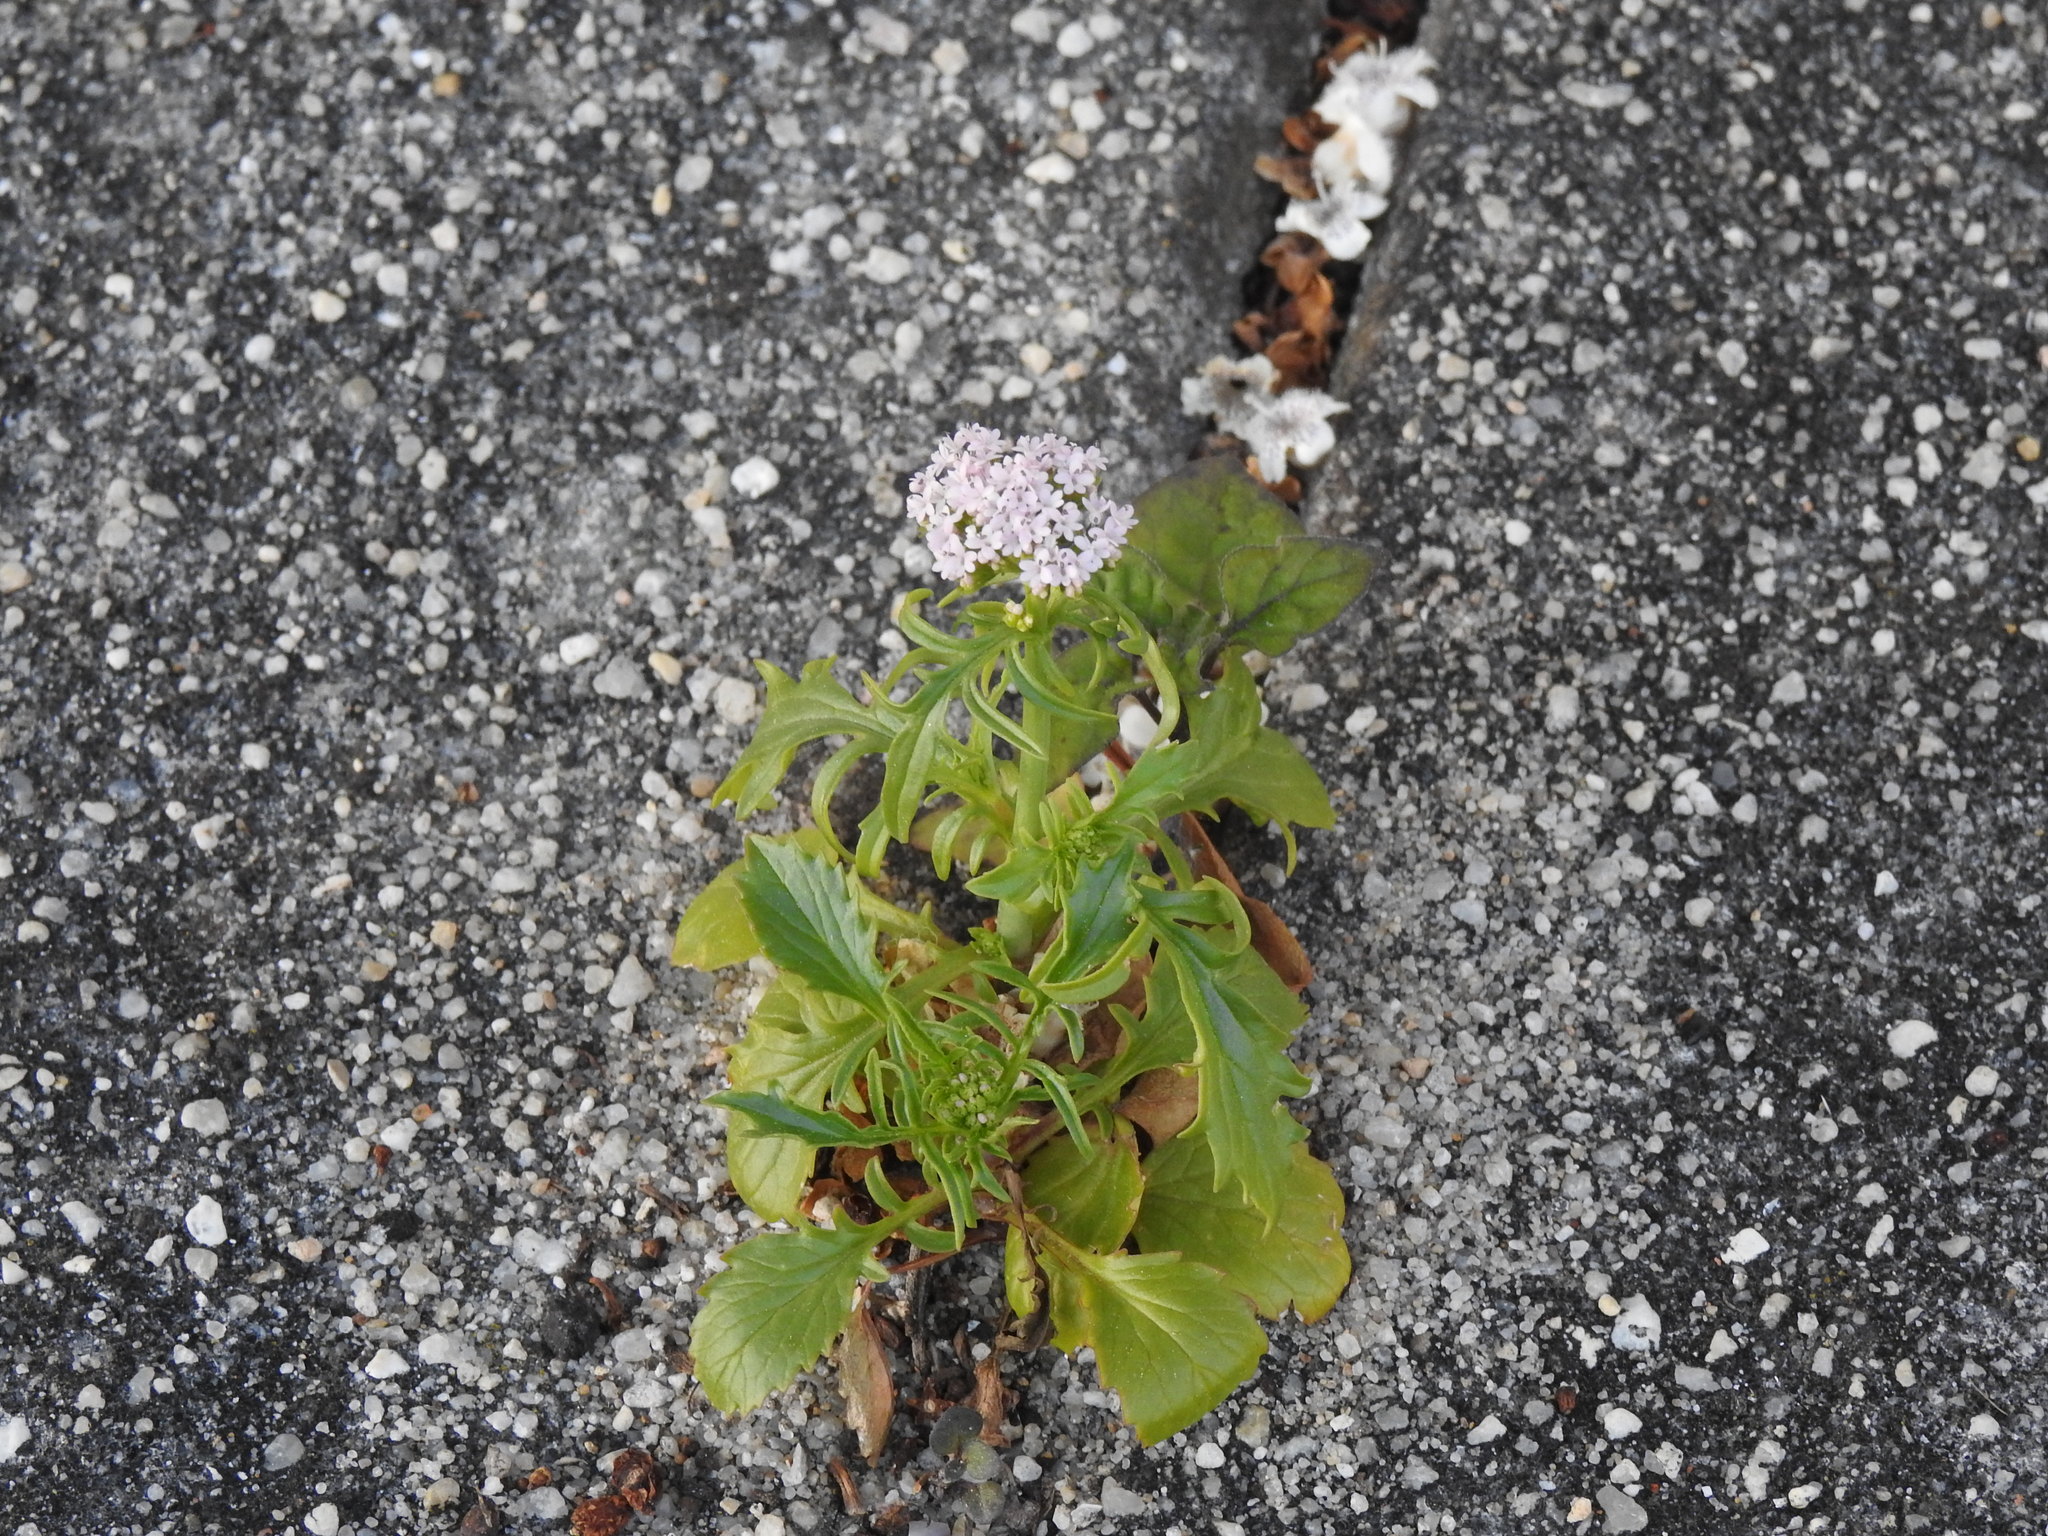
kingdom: Plantae
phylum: Tracheophyta
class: Magnoliopsida
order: Dipsacales
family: Caprifoliaceae
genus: Centranthus
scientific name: Centranthus calcitrapae
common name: Annual valerian
